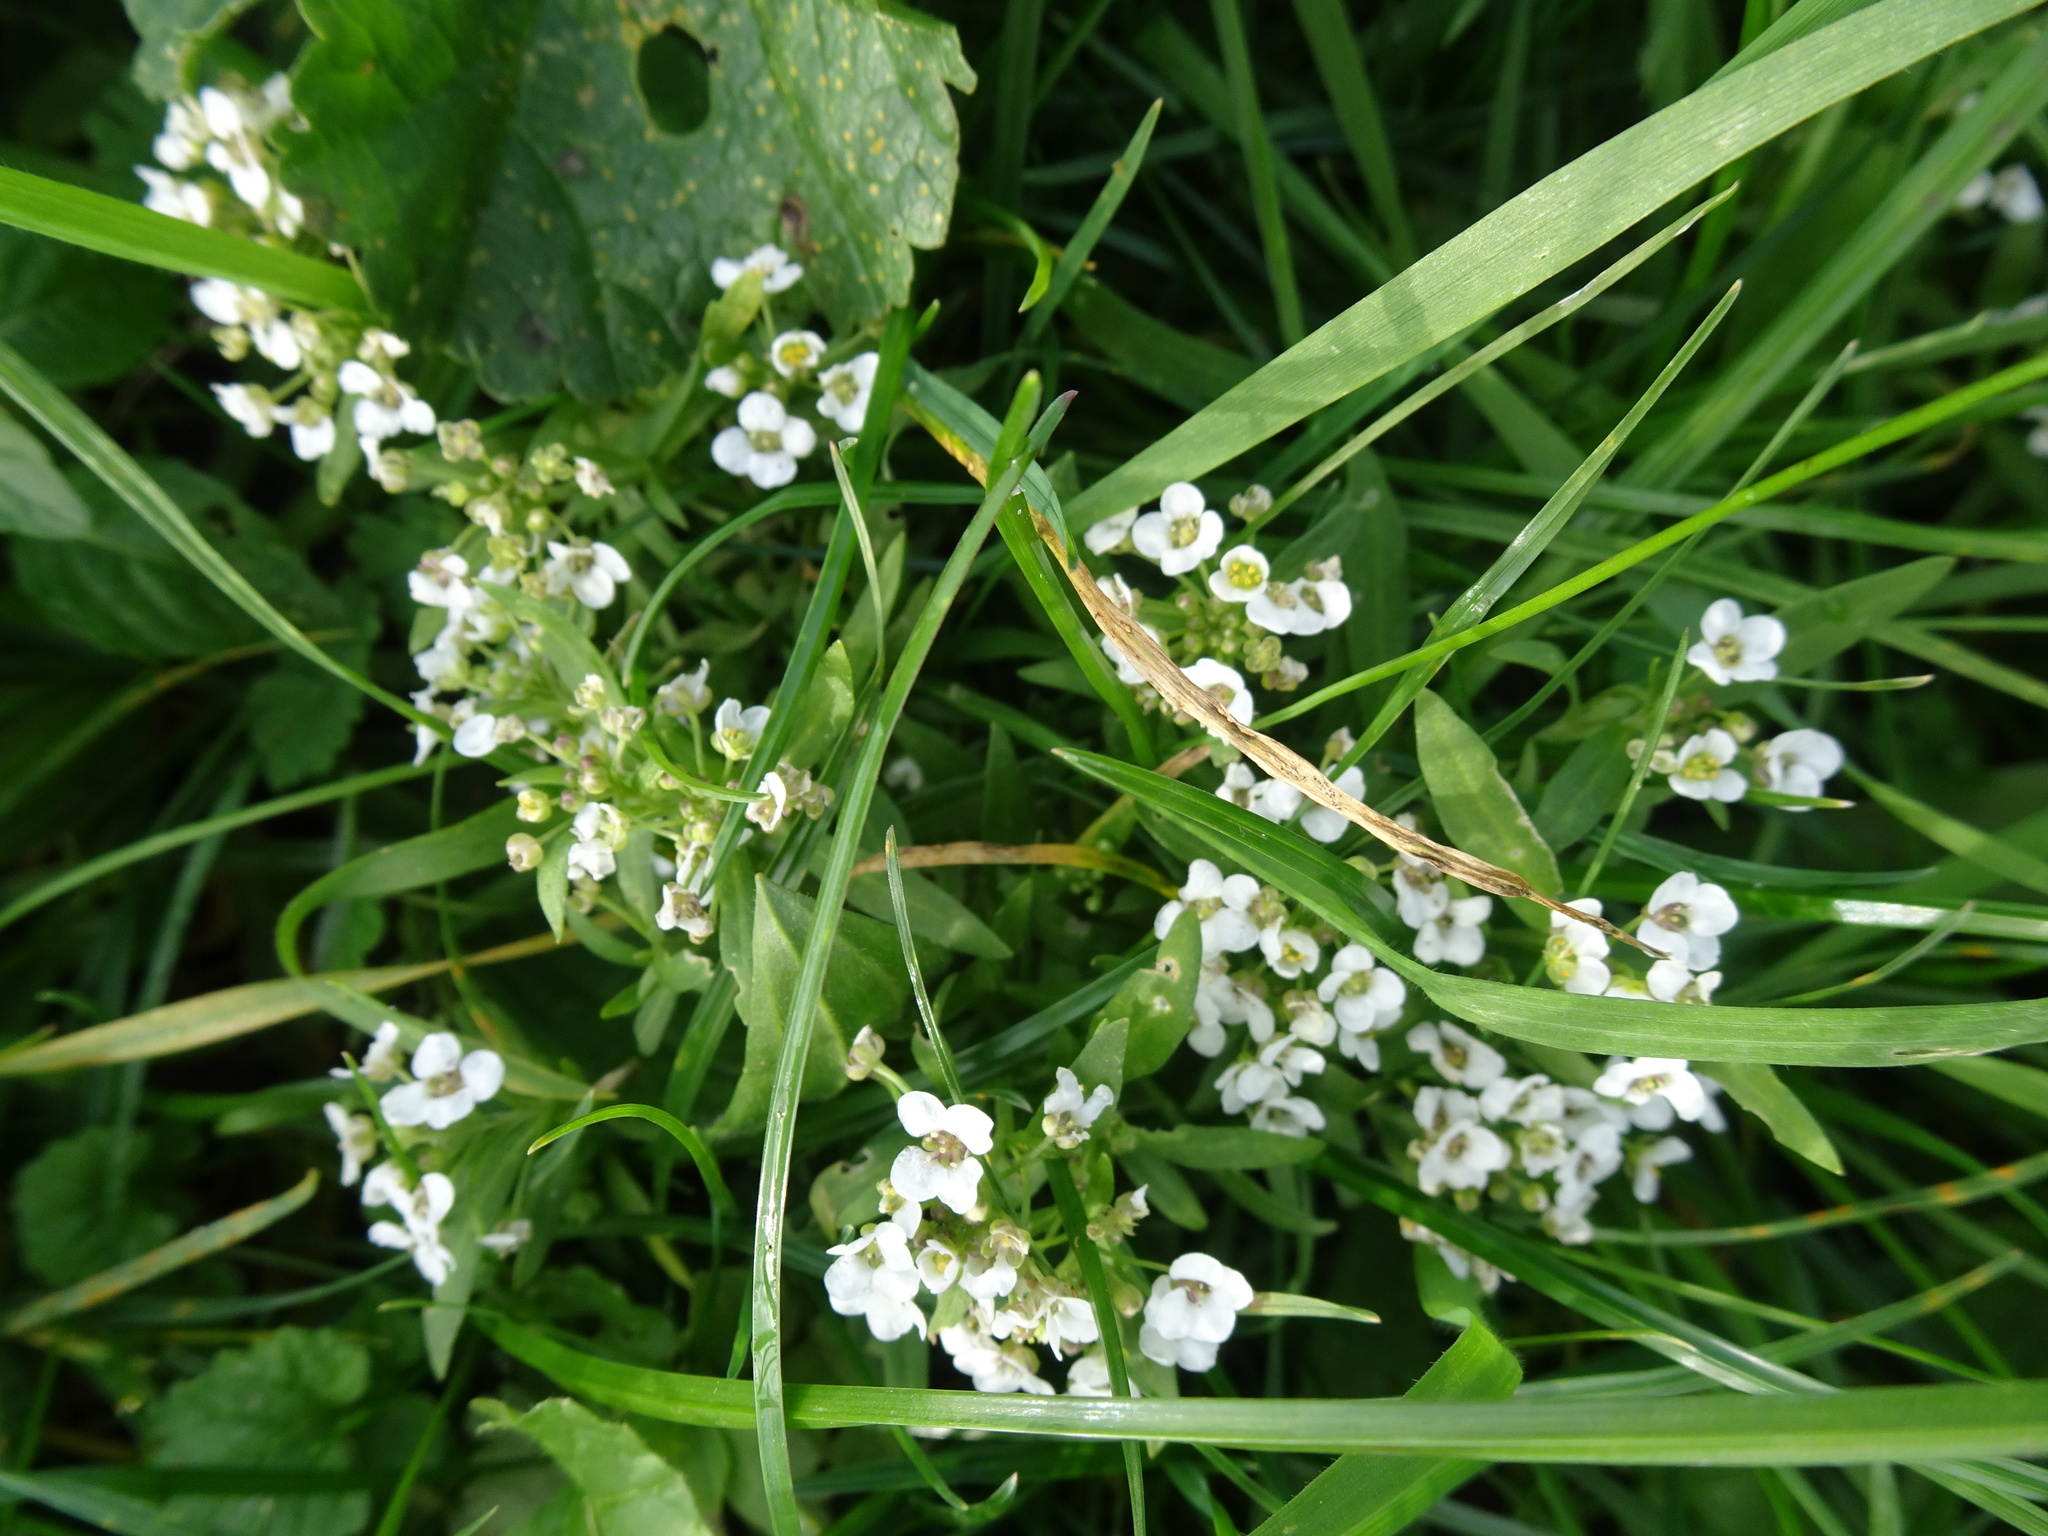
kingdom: Plantae
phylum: Tracheophyta
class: Magnoliopsida
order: Brassicales
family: Brassicaceae
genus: Lobularia
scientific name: Lobularia maritima
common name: Sweet alison
